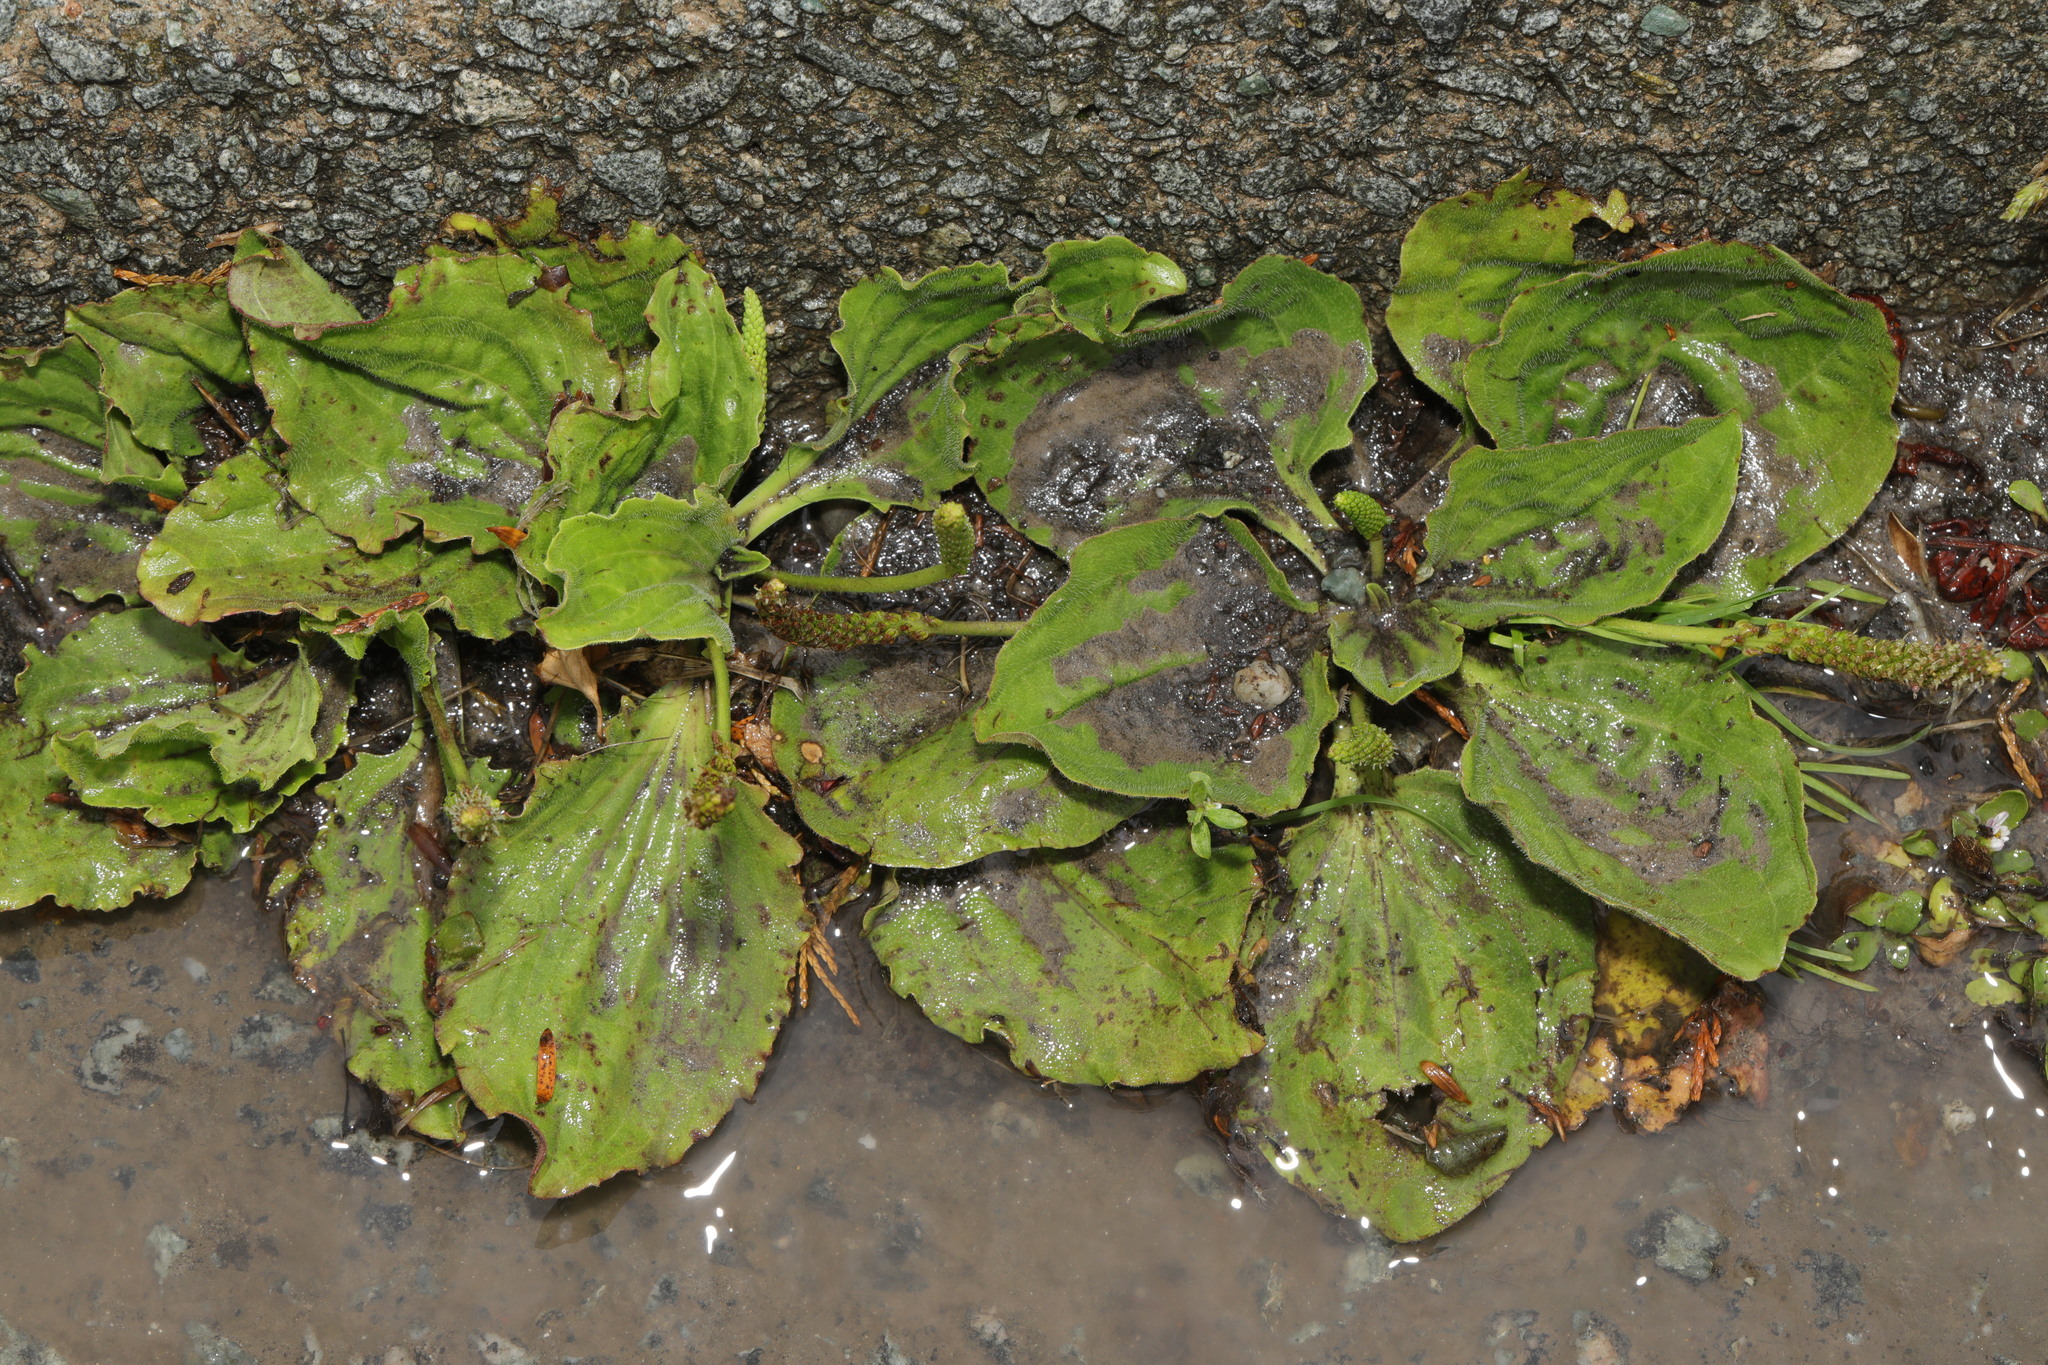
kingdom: Plantae
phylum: Tracheophyta
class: Magnoliopsida
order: Lamiales
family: Plantaginaceae
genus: Plantago
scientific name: Plantago major
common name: Common plantain
